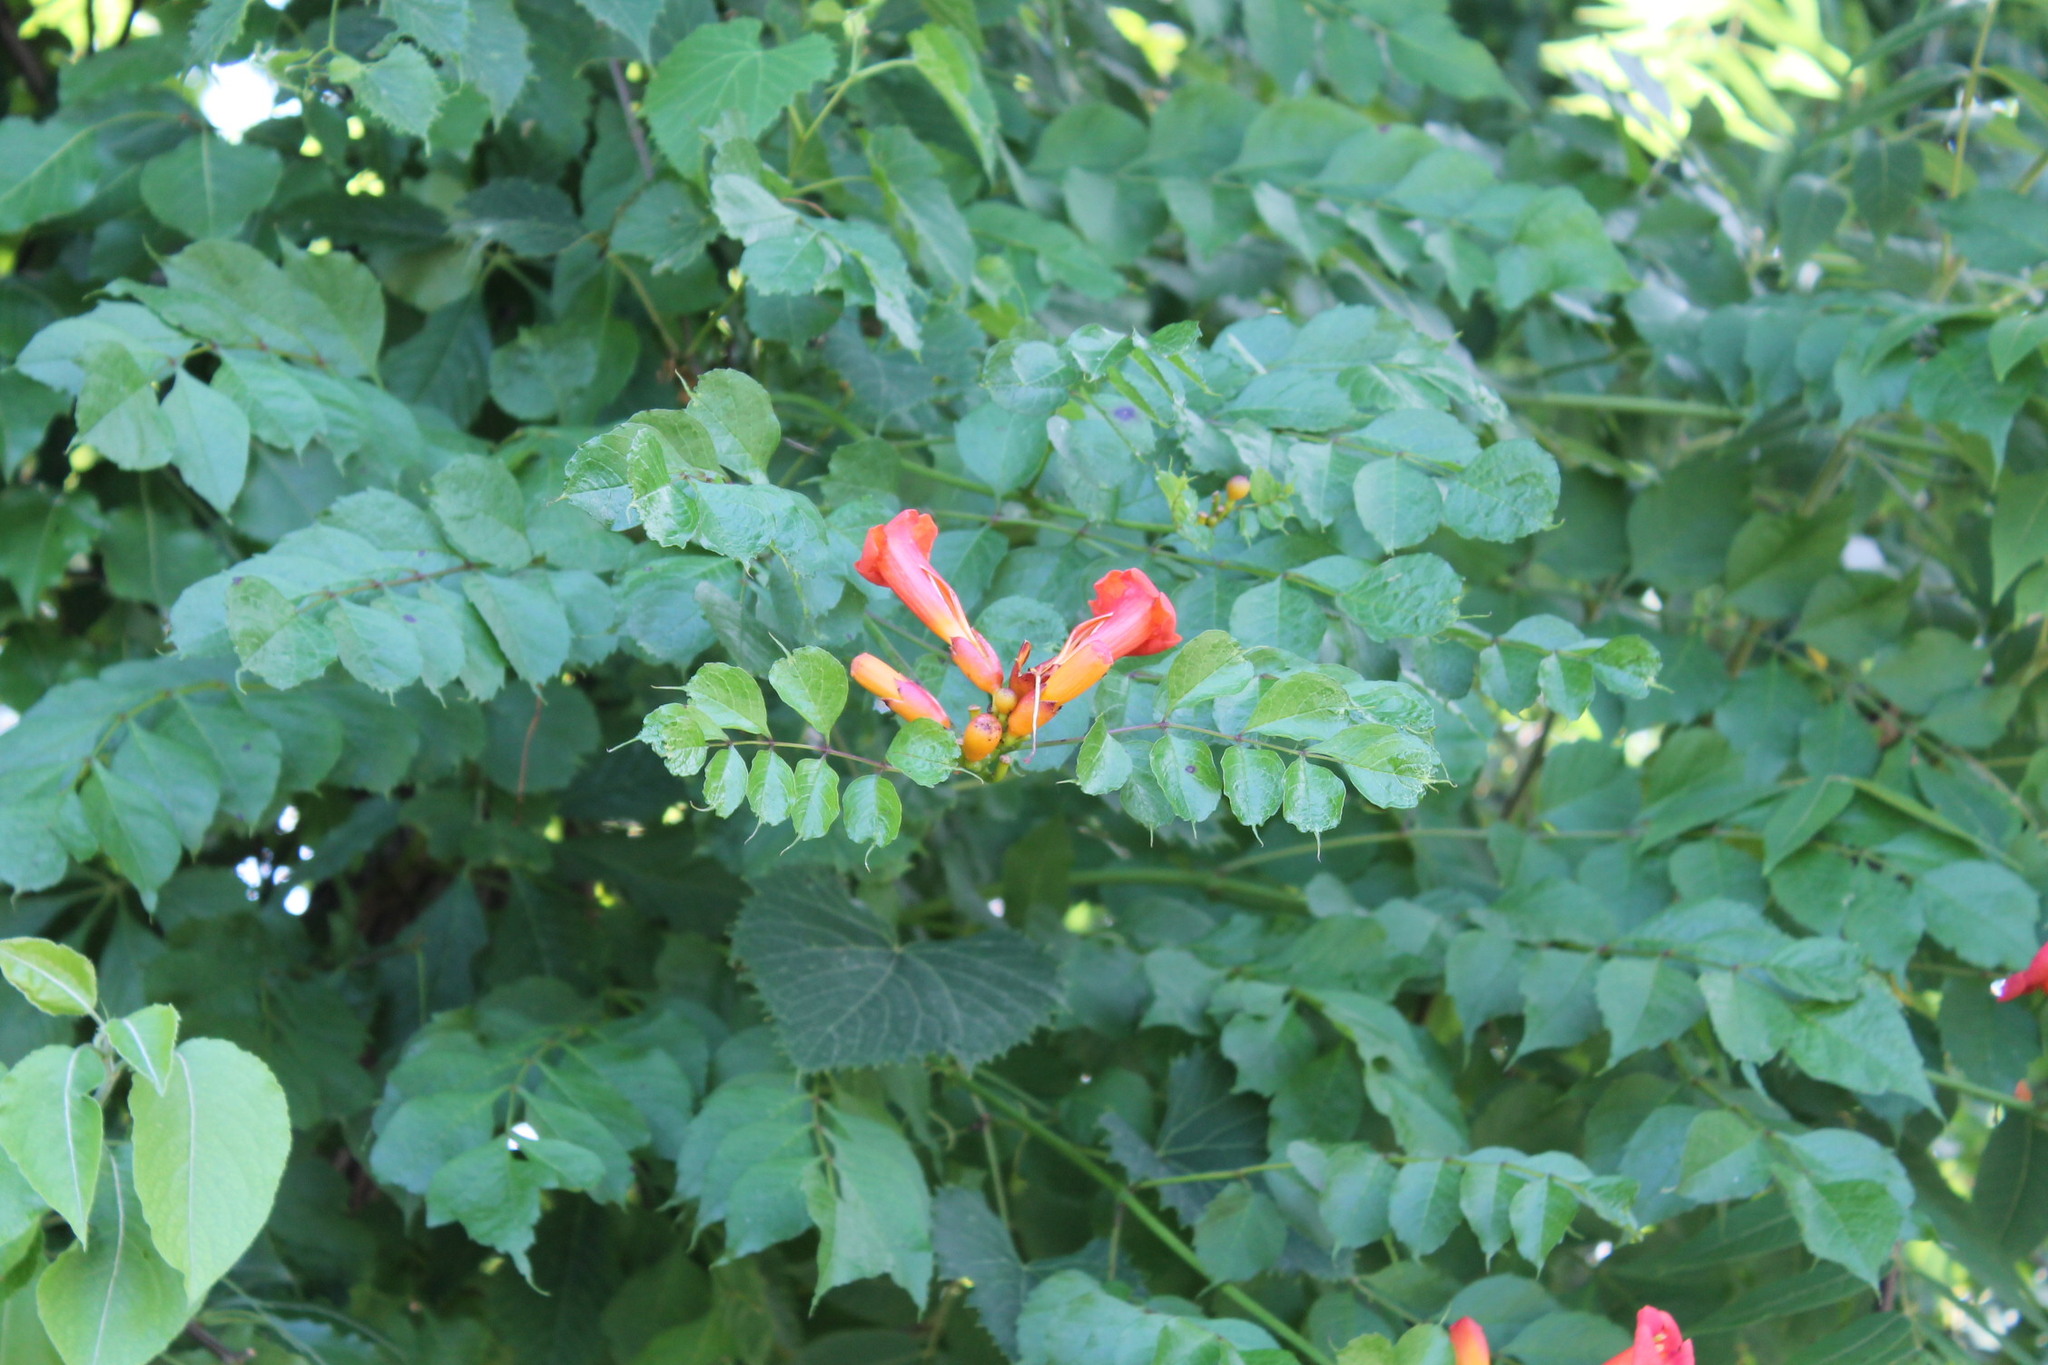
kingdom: Plantae
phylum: Tracheophyta
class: Magnoliopsida
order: Lamiales
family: Bignoniaceae
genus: Campsis
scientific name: Campsis radicans
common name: Trumpet-creeper
